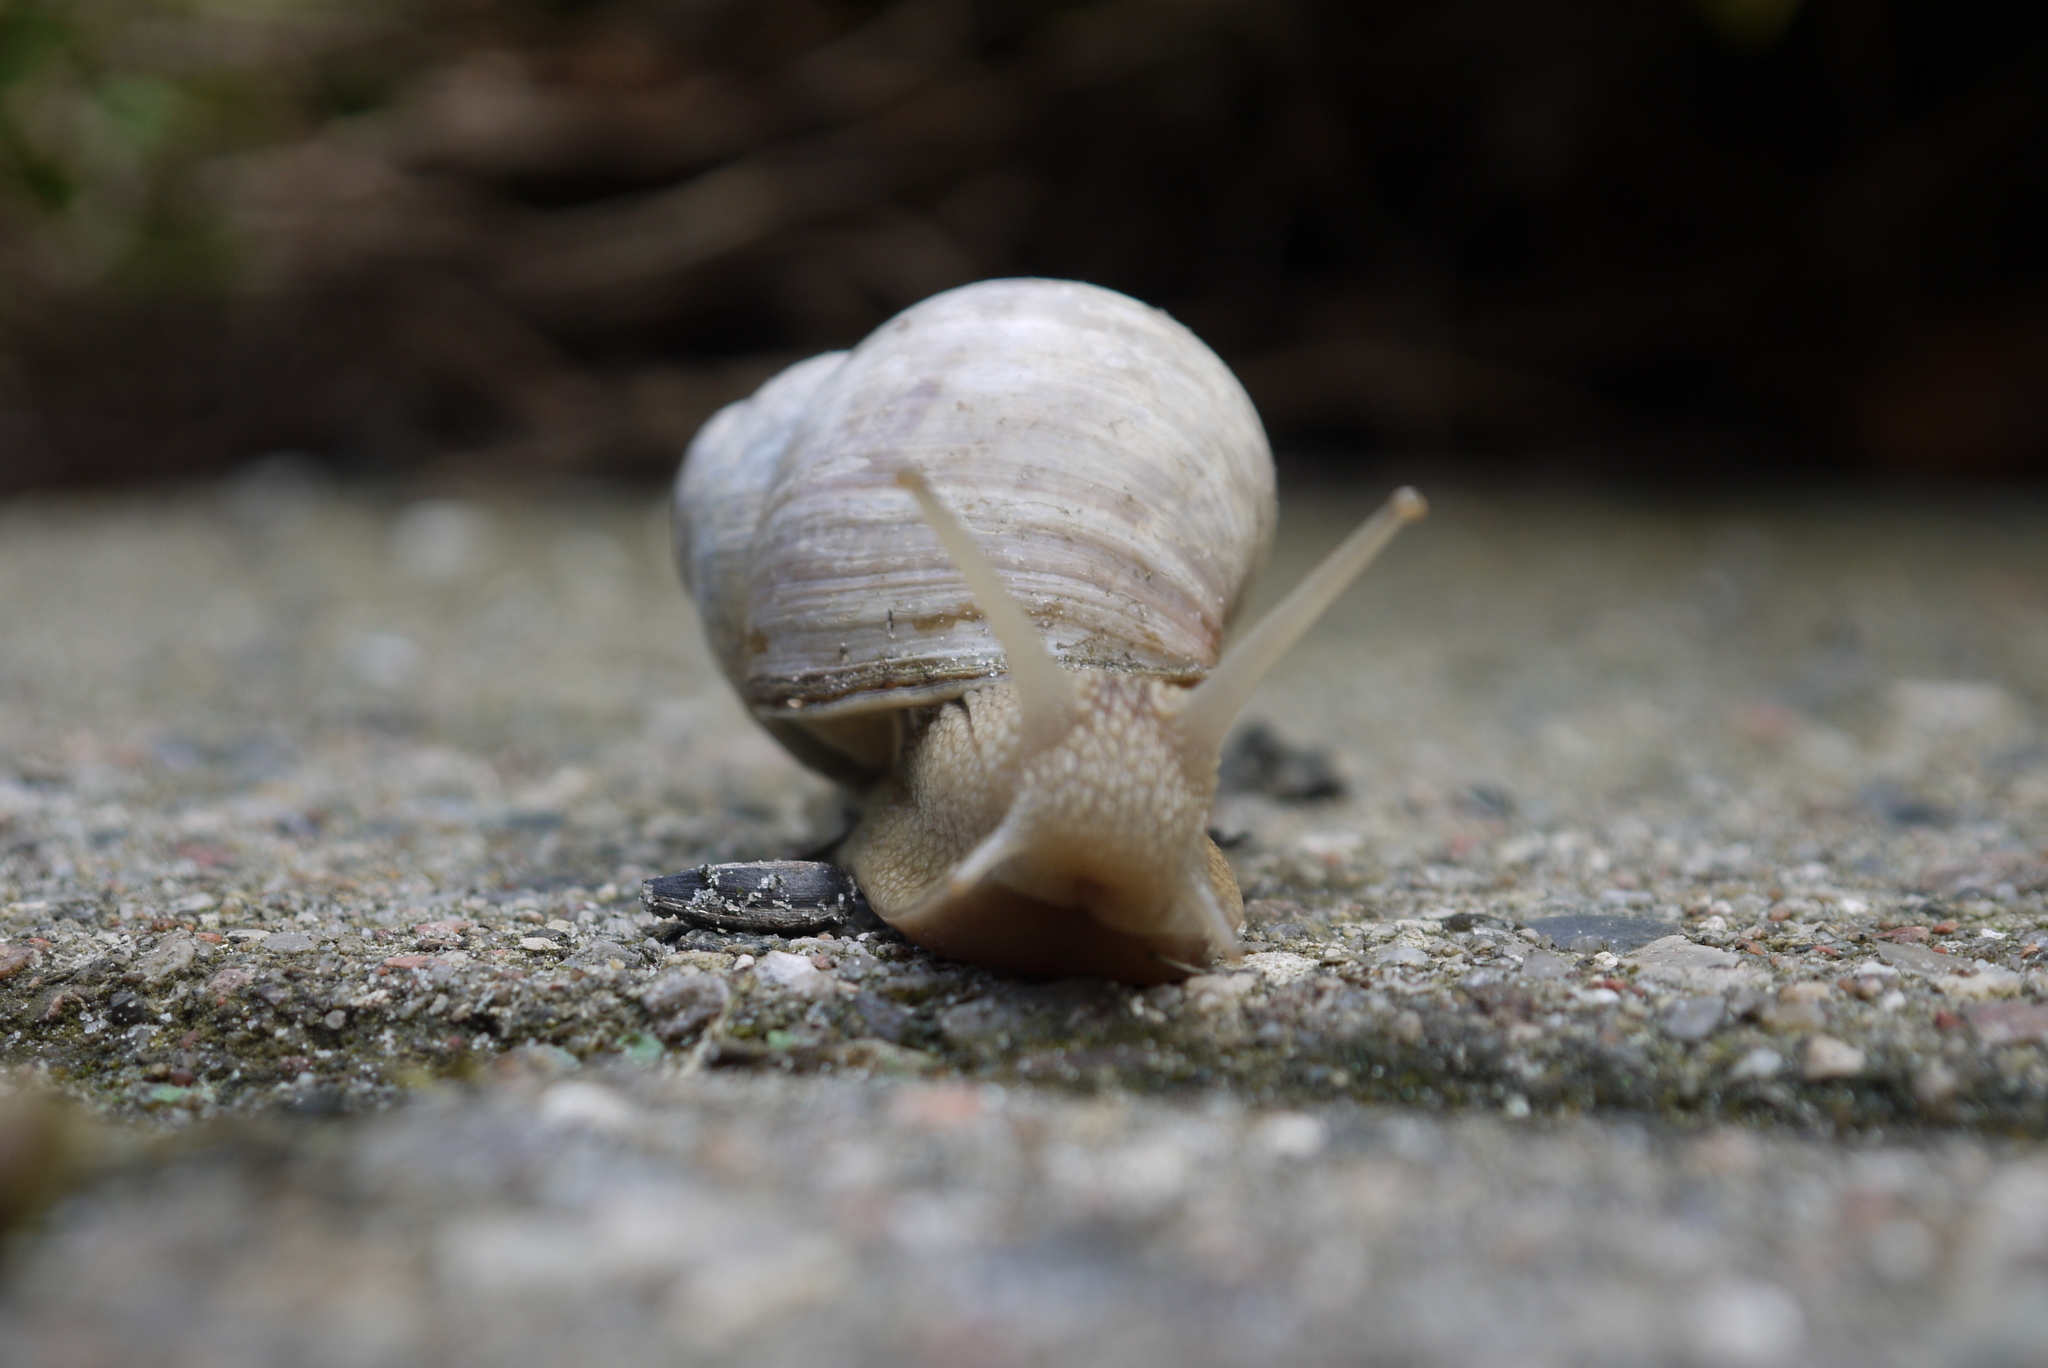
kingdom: Animalia
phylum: Mollusca
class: Gastropoda
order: Stylommatophora
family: Helicidae
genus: Helix
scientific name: Helix pomatia
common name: Roman snail
